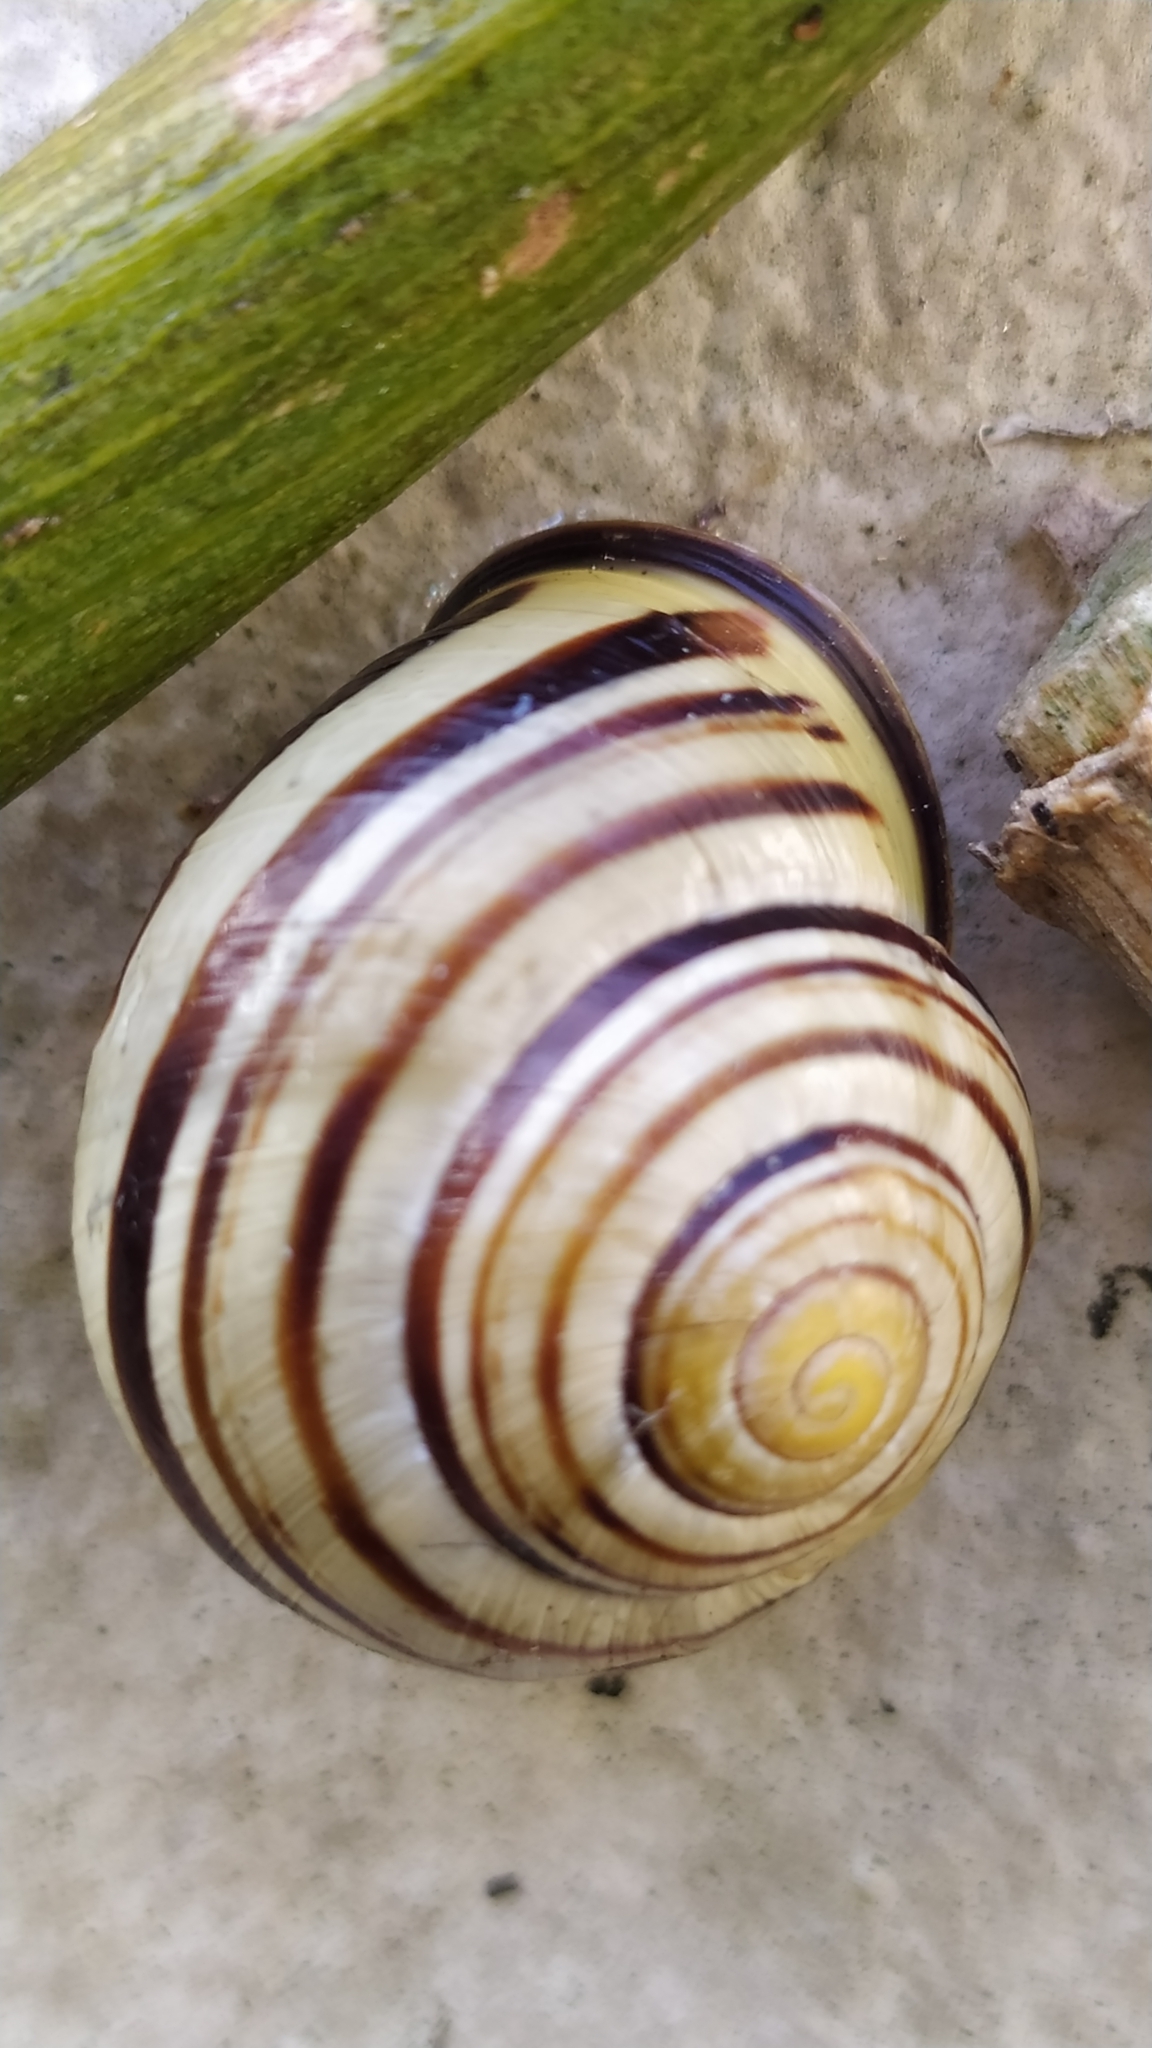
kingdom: Animalia
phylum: Mollusca
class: Gastropoda
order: Stylommatophora
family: Helicidae
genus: Cepaea
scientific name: Cepaea nemoralis
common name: Grovesnail
